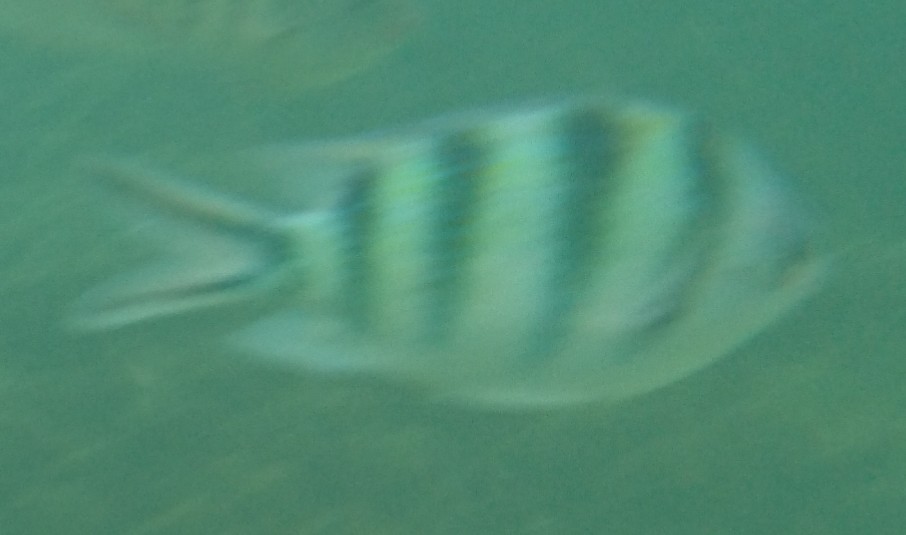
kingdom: Animalia
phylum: Chordata
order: Perciformes
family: Pomacentridae
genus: Abudefduf
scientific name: Abudefduf sexfasciatus
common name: Scissortail sergeant
